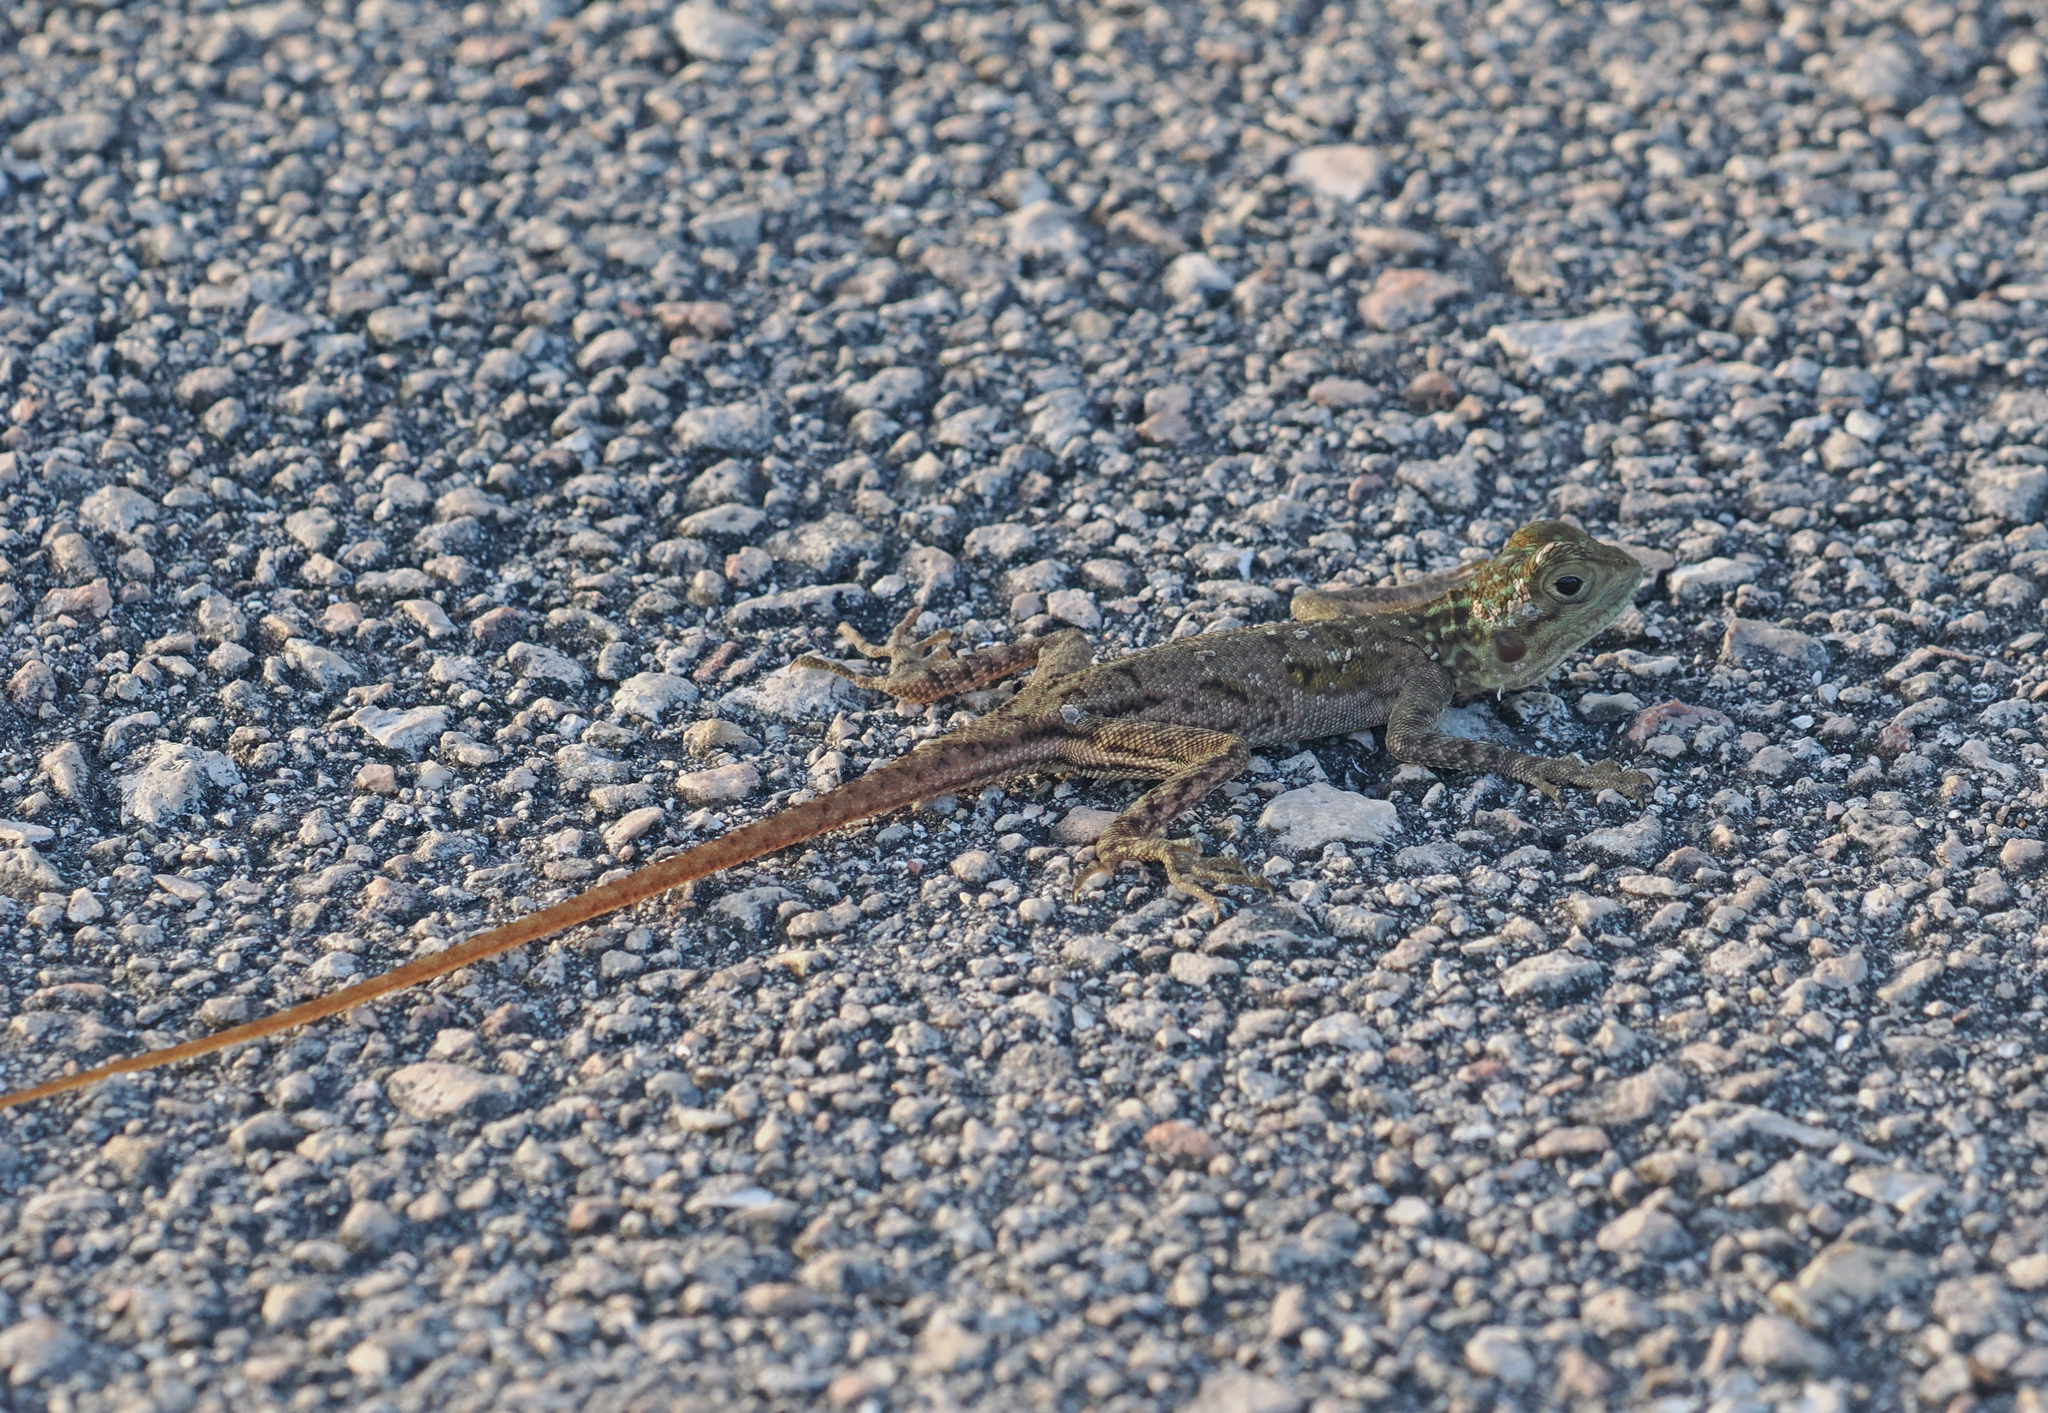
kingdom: Animalia
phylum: Chordata
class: Squamata
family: Agamidae
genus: Agama
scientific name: Agama picticauda
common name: Red-headed agama
